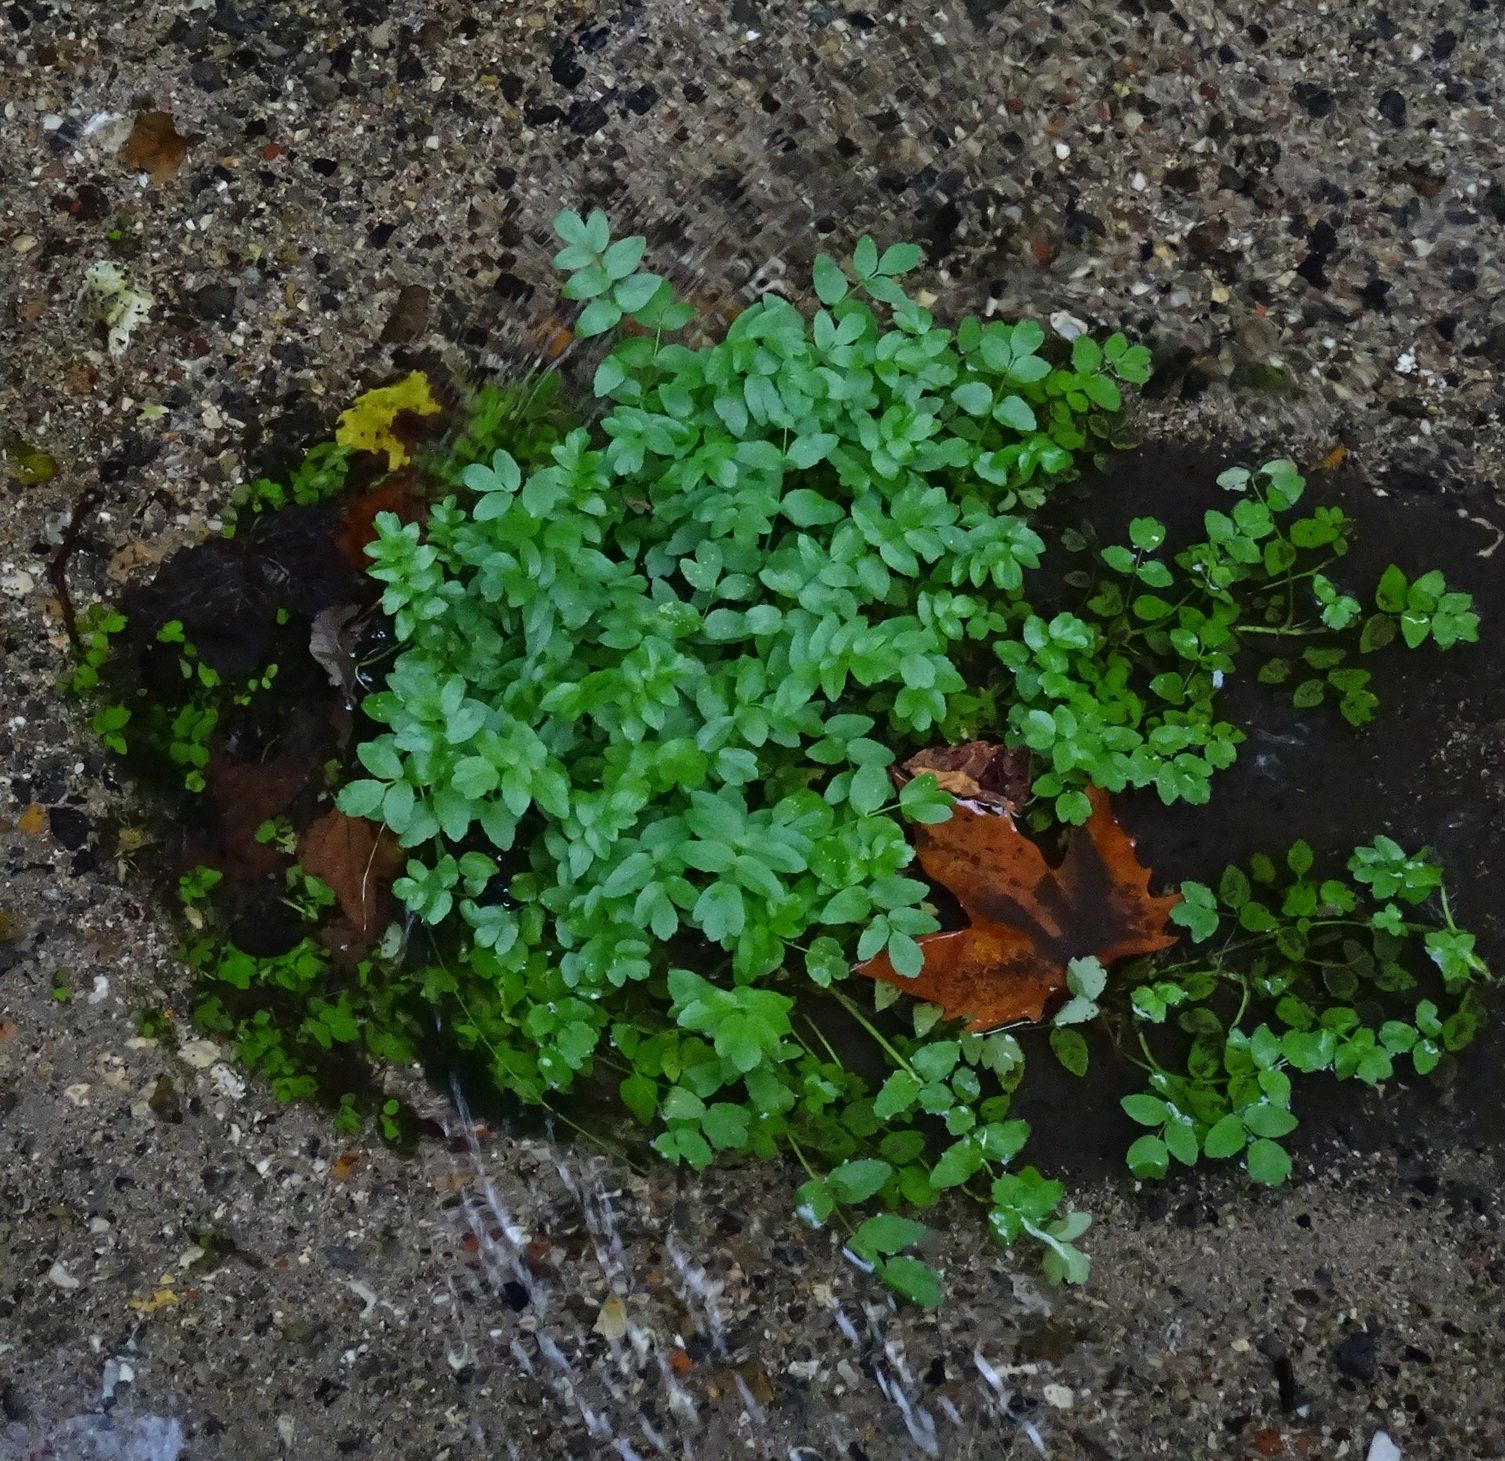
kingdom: Plantae
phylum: Tracheophyta
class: Magnoliopsida
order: Apiales
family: Apiaceae
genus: Helosciadium
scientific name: Helosciadium nodiflorum
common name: Fool's-watercress
